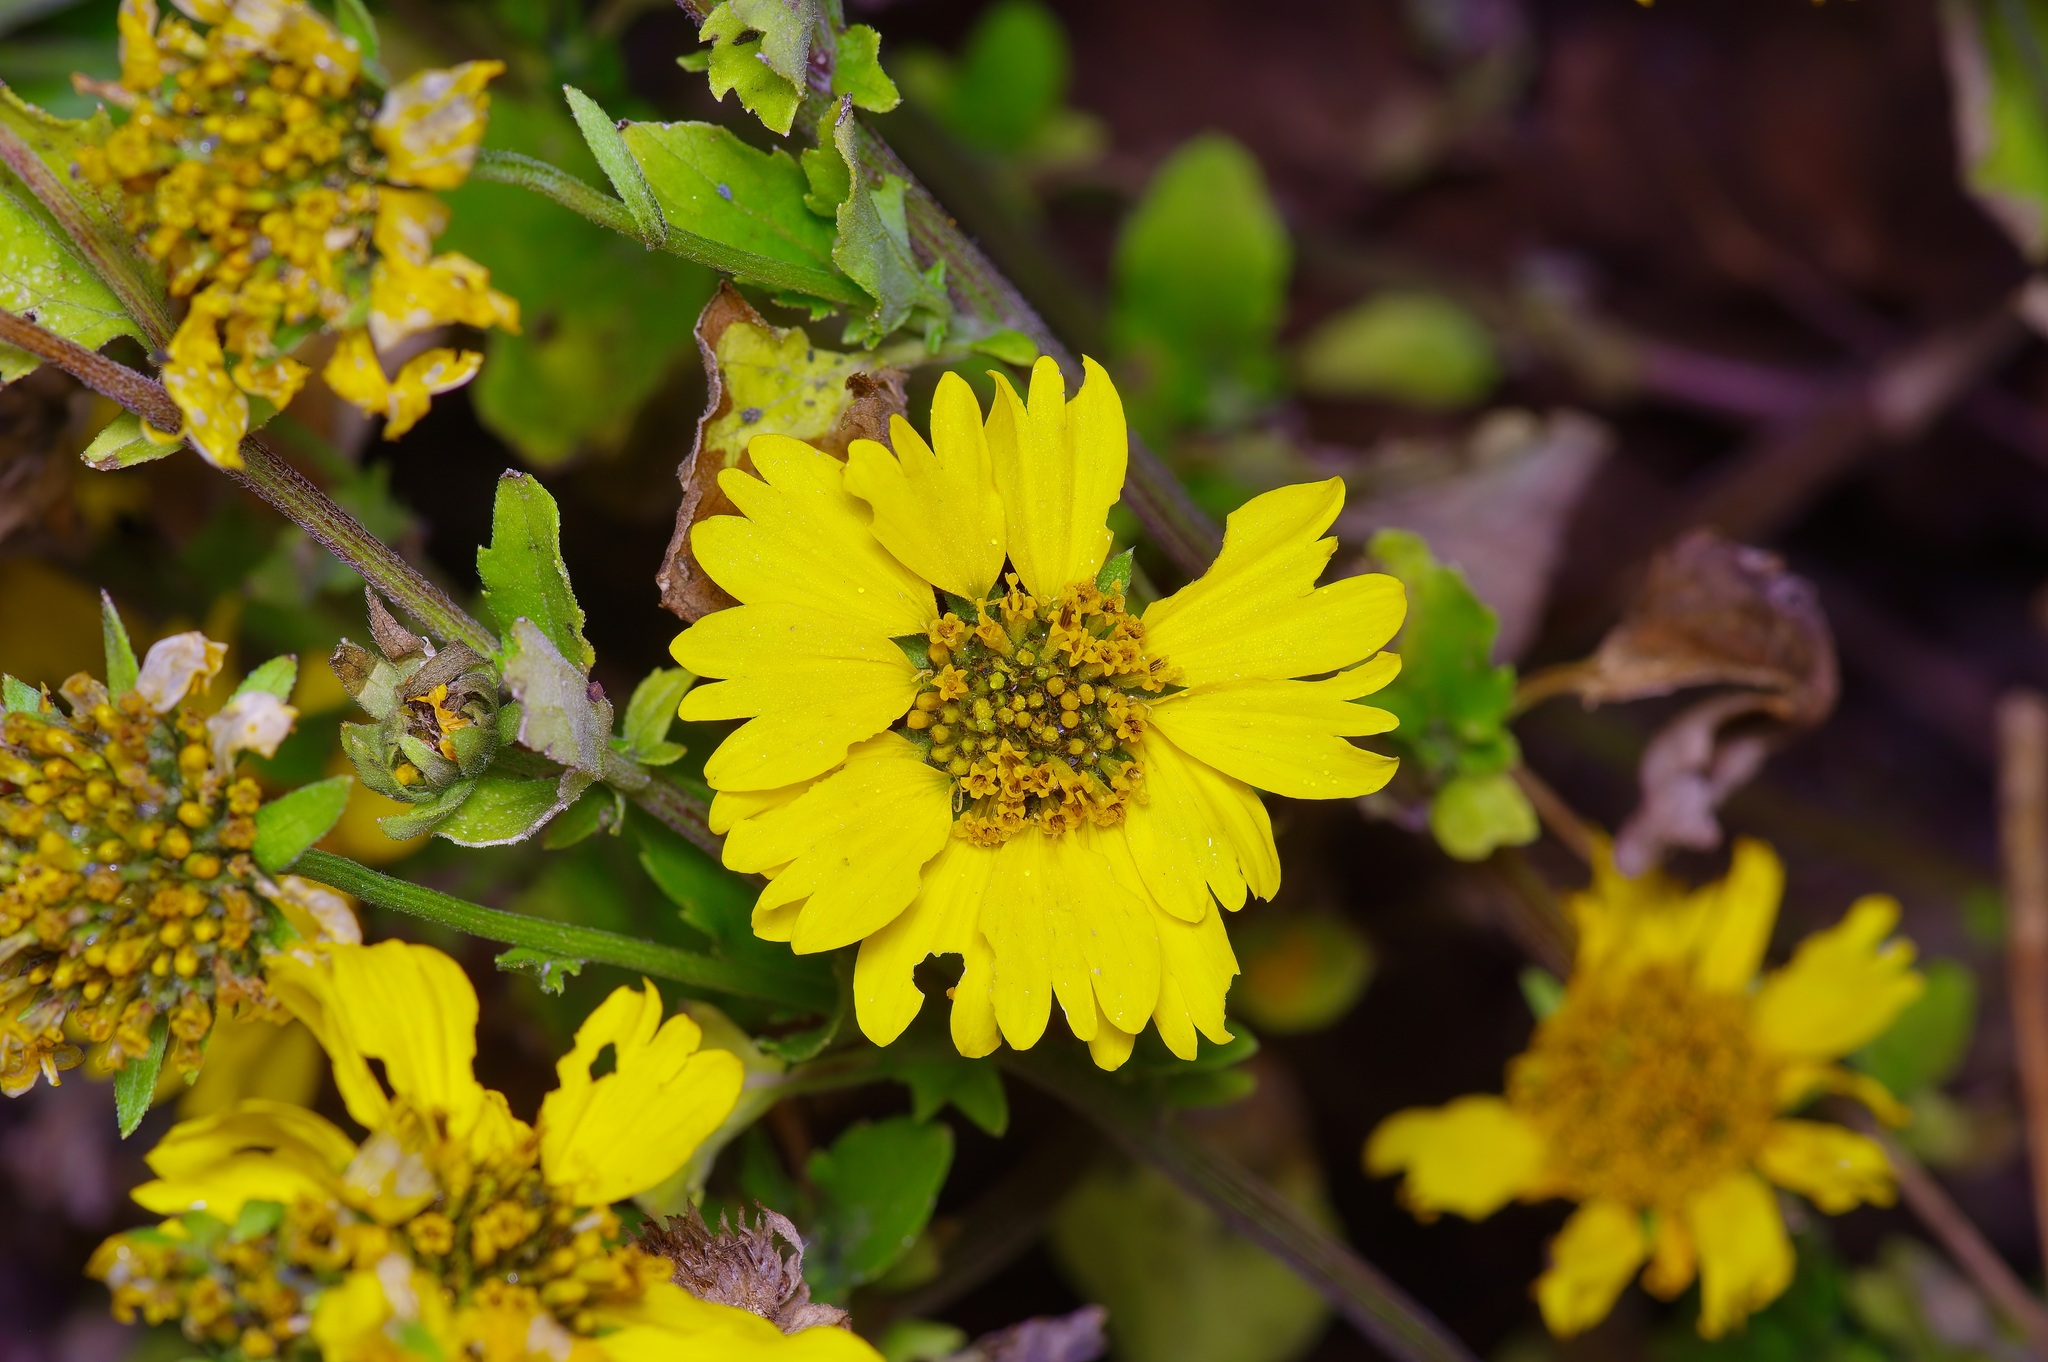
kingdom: Plantae
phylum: Tracheophyta
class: Magnoliopsida
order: Asterales
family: Asteraceae
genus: Verbesina
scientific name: Verbesina encelioides
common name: Golden crownbeard
